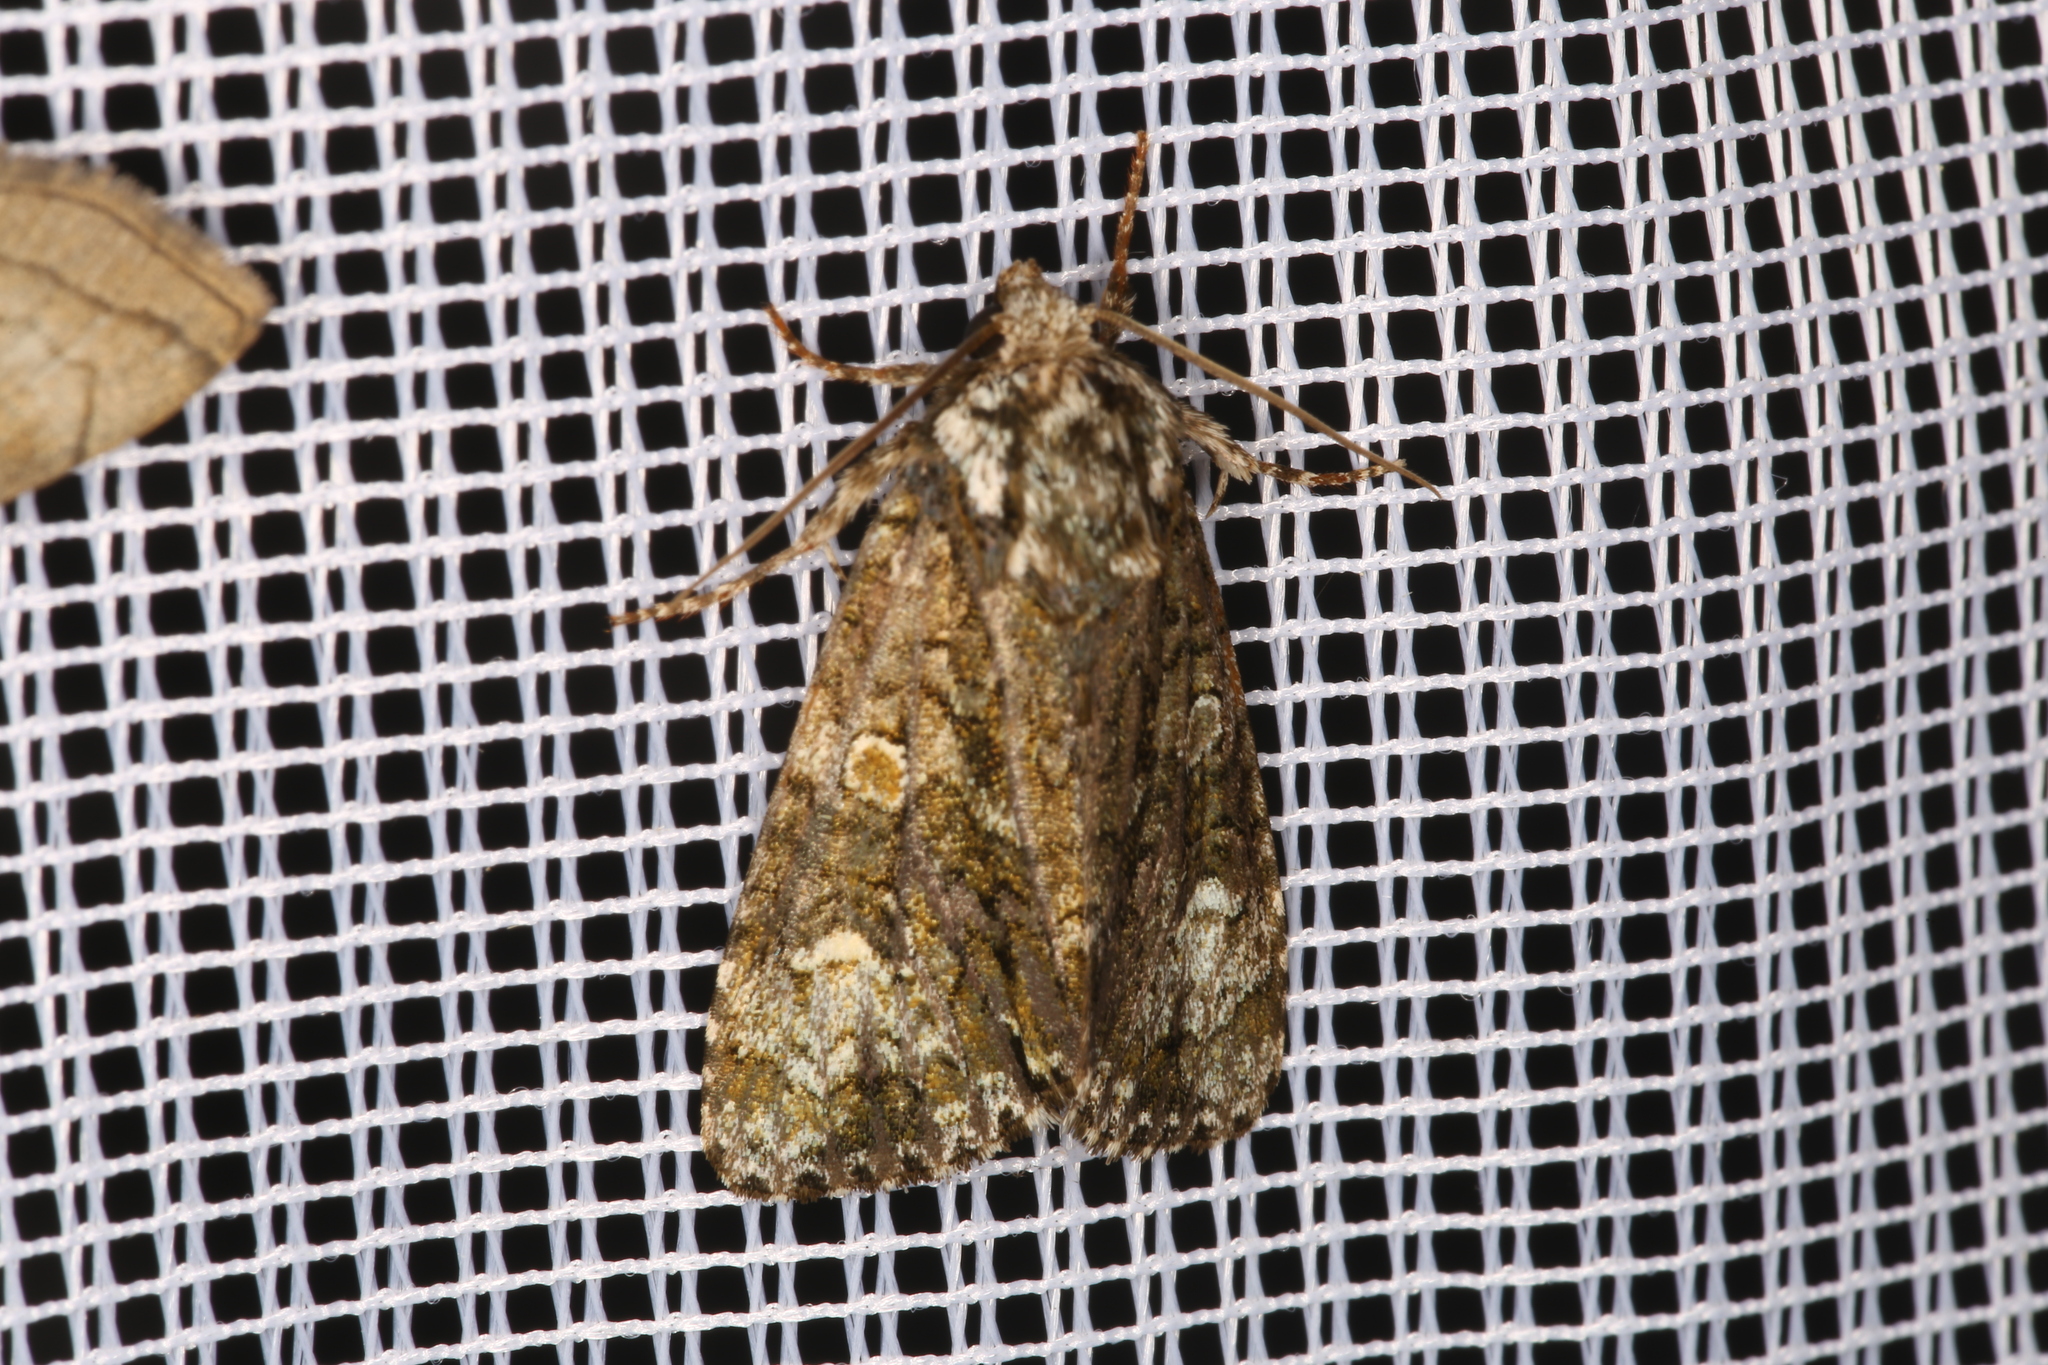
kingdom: Animalia
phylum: Arthropoda
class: Insecta
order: Lepidoptera
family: Noctuidae
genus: Craniophora
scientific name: Craniophora ligustri
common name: Coronet
